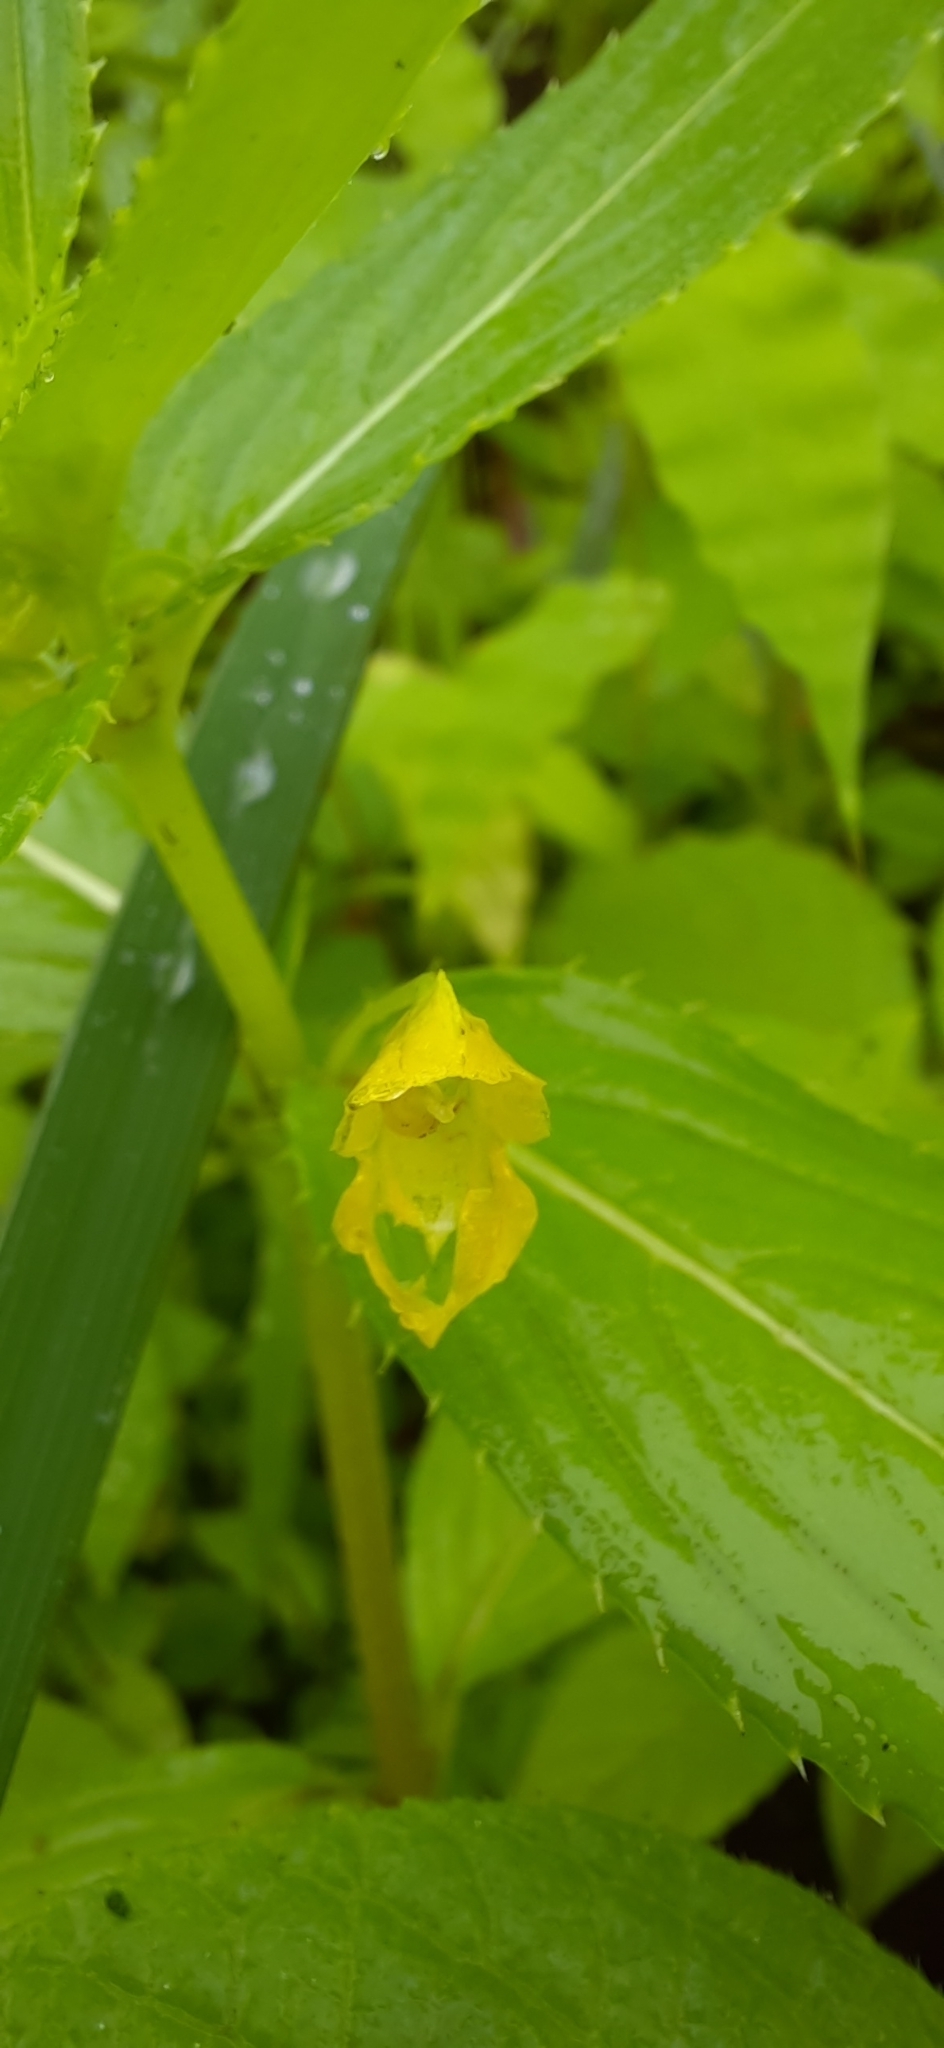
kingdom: Plantae
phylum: Tracheophyta
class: Magnoliopsida
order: Ericales
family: Balsaminaceae
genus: Impatiens
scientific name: Impatiens dalzellii
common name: Dalzell's yellow balsam
